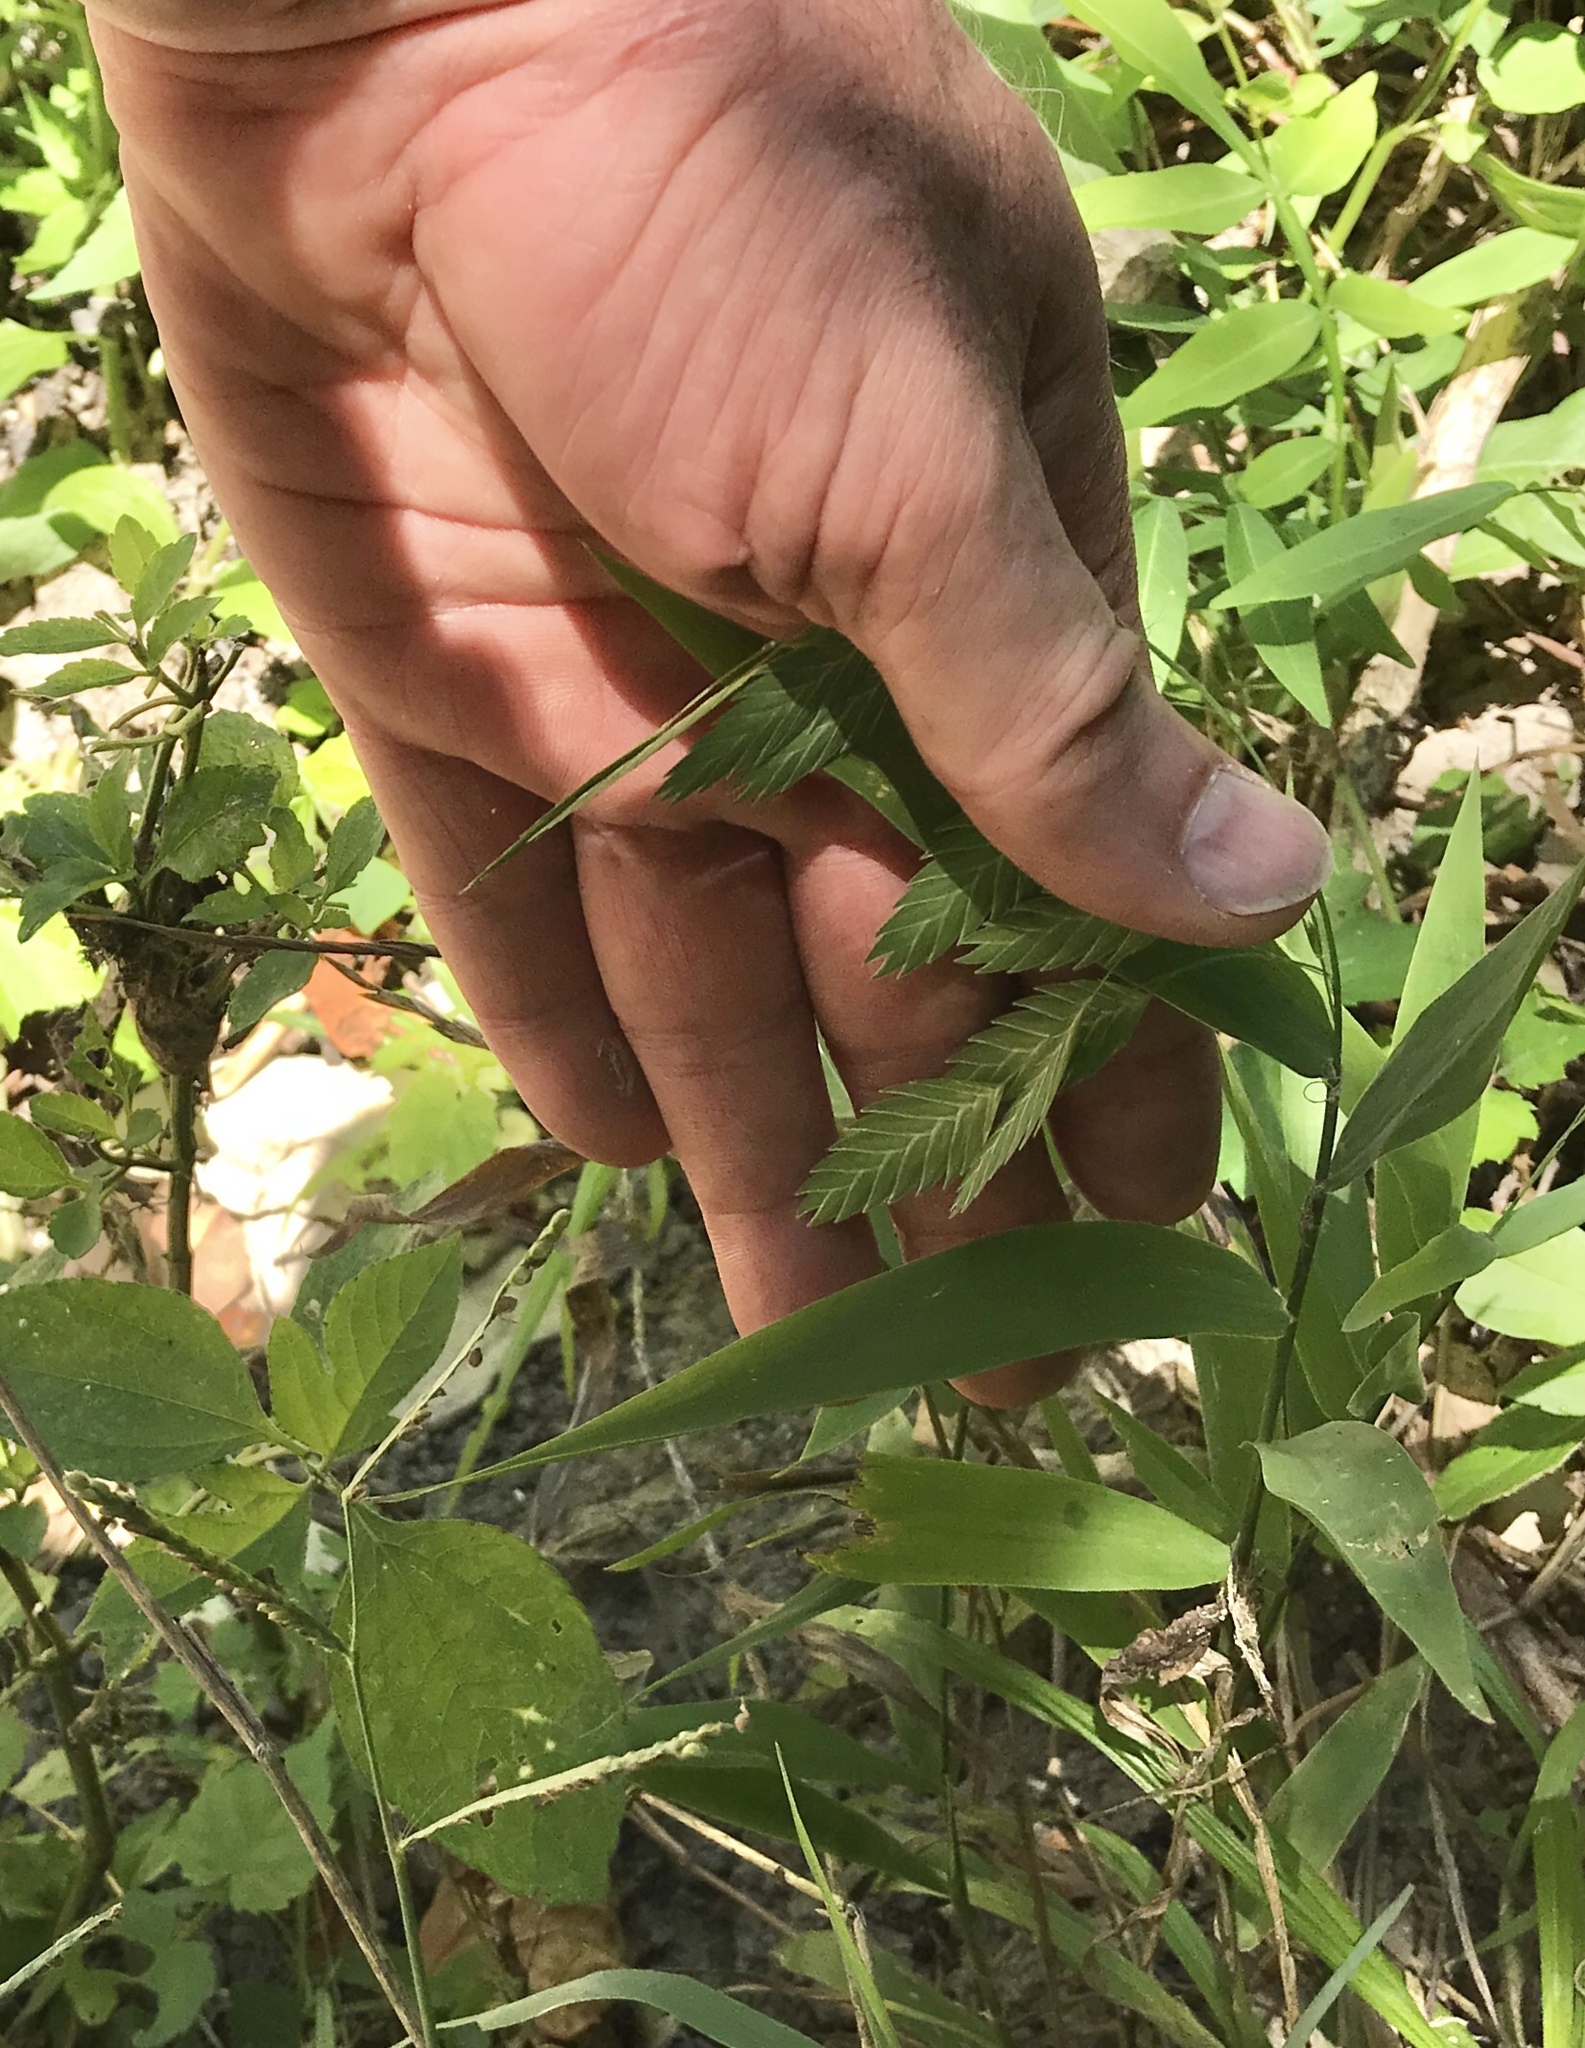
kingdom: Plantae
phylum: Tracheophyta
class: Liliopsida
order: Poales
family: Poaceae
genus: Chasmanthium
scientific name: Chasmanthium latifolium
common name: Broad-leaved chasmanthium
